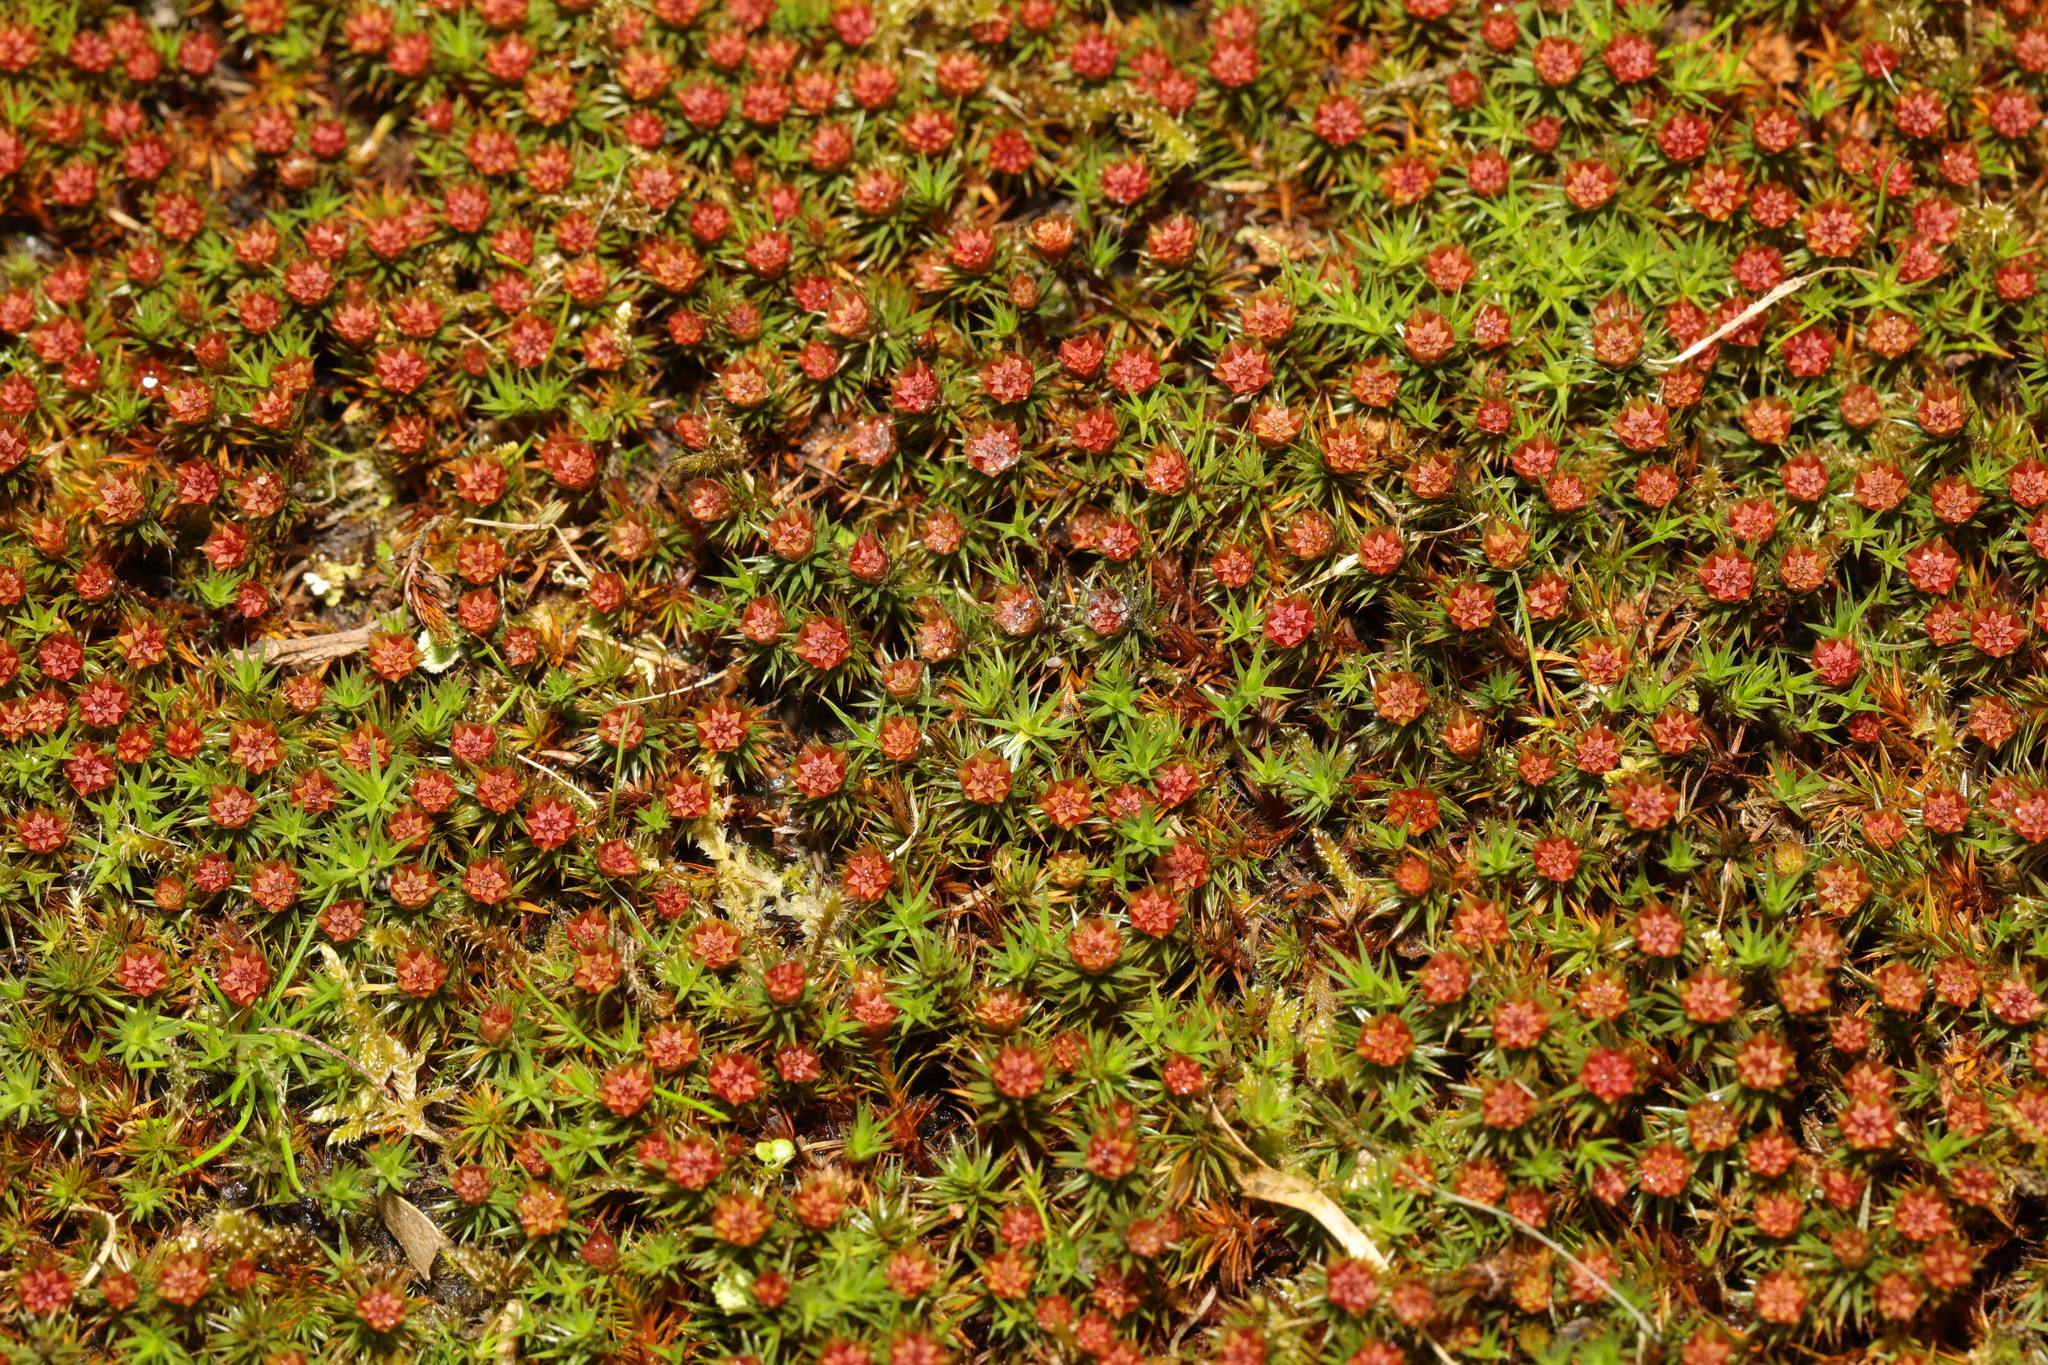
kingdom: Plantae
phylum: Bryophyta
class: Polytrichopsida
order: Polytrichales
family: Polytrichaceae
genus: Polytrichum
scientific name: Polytrichum juniperinum
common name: Juniper haircap moss
